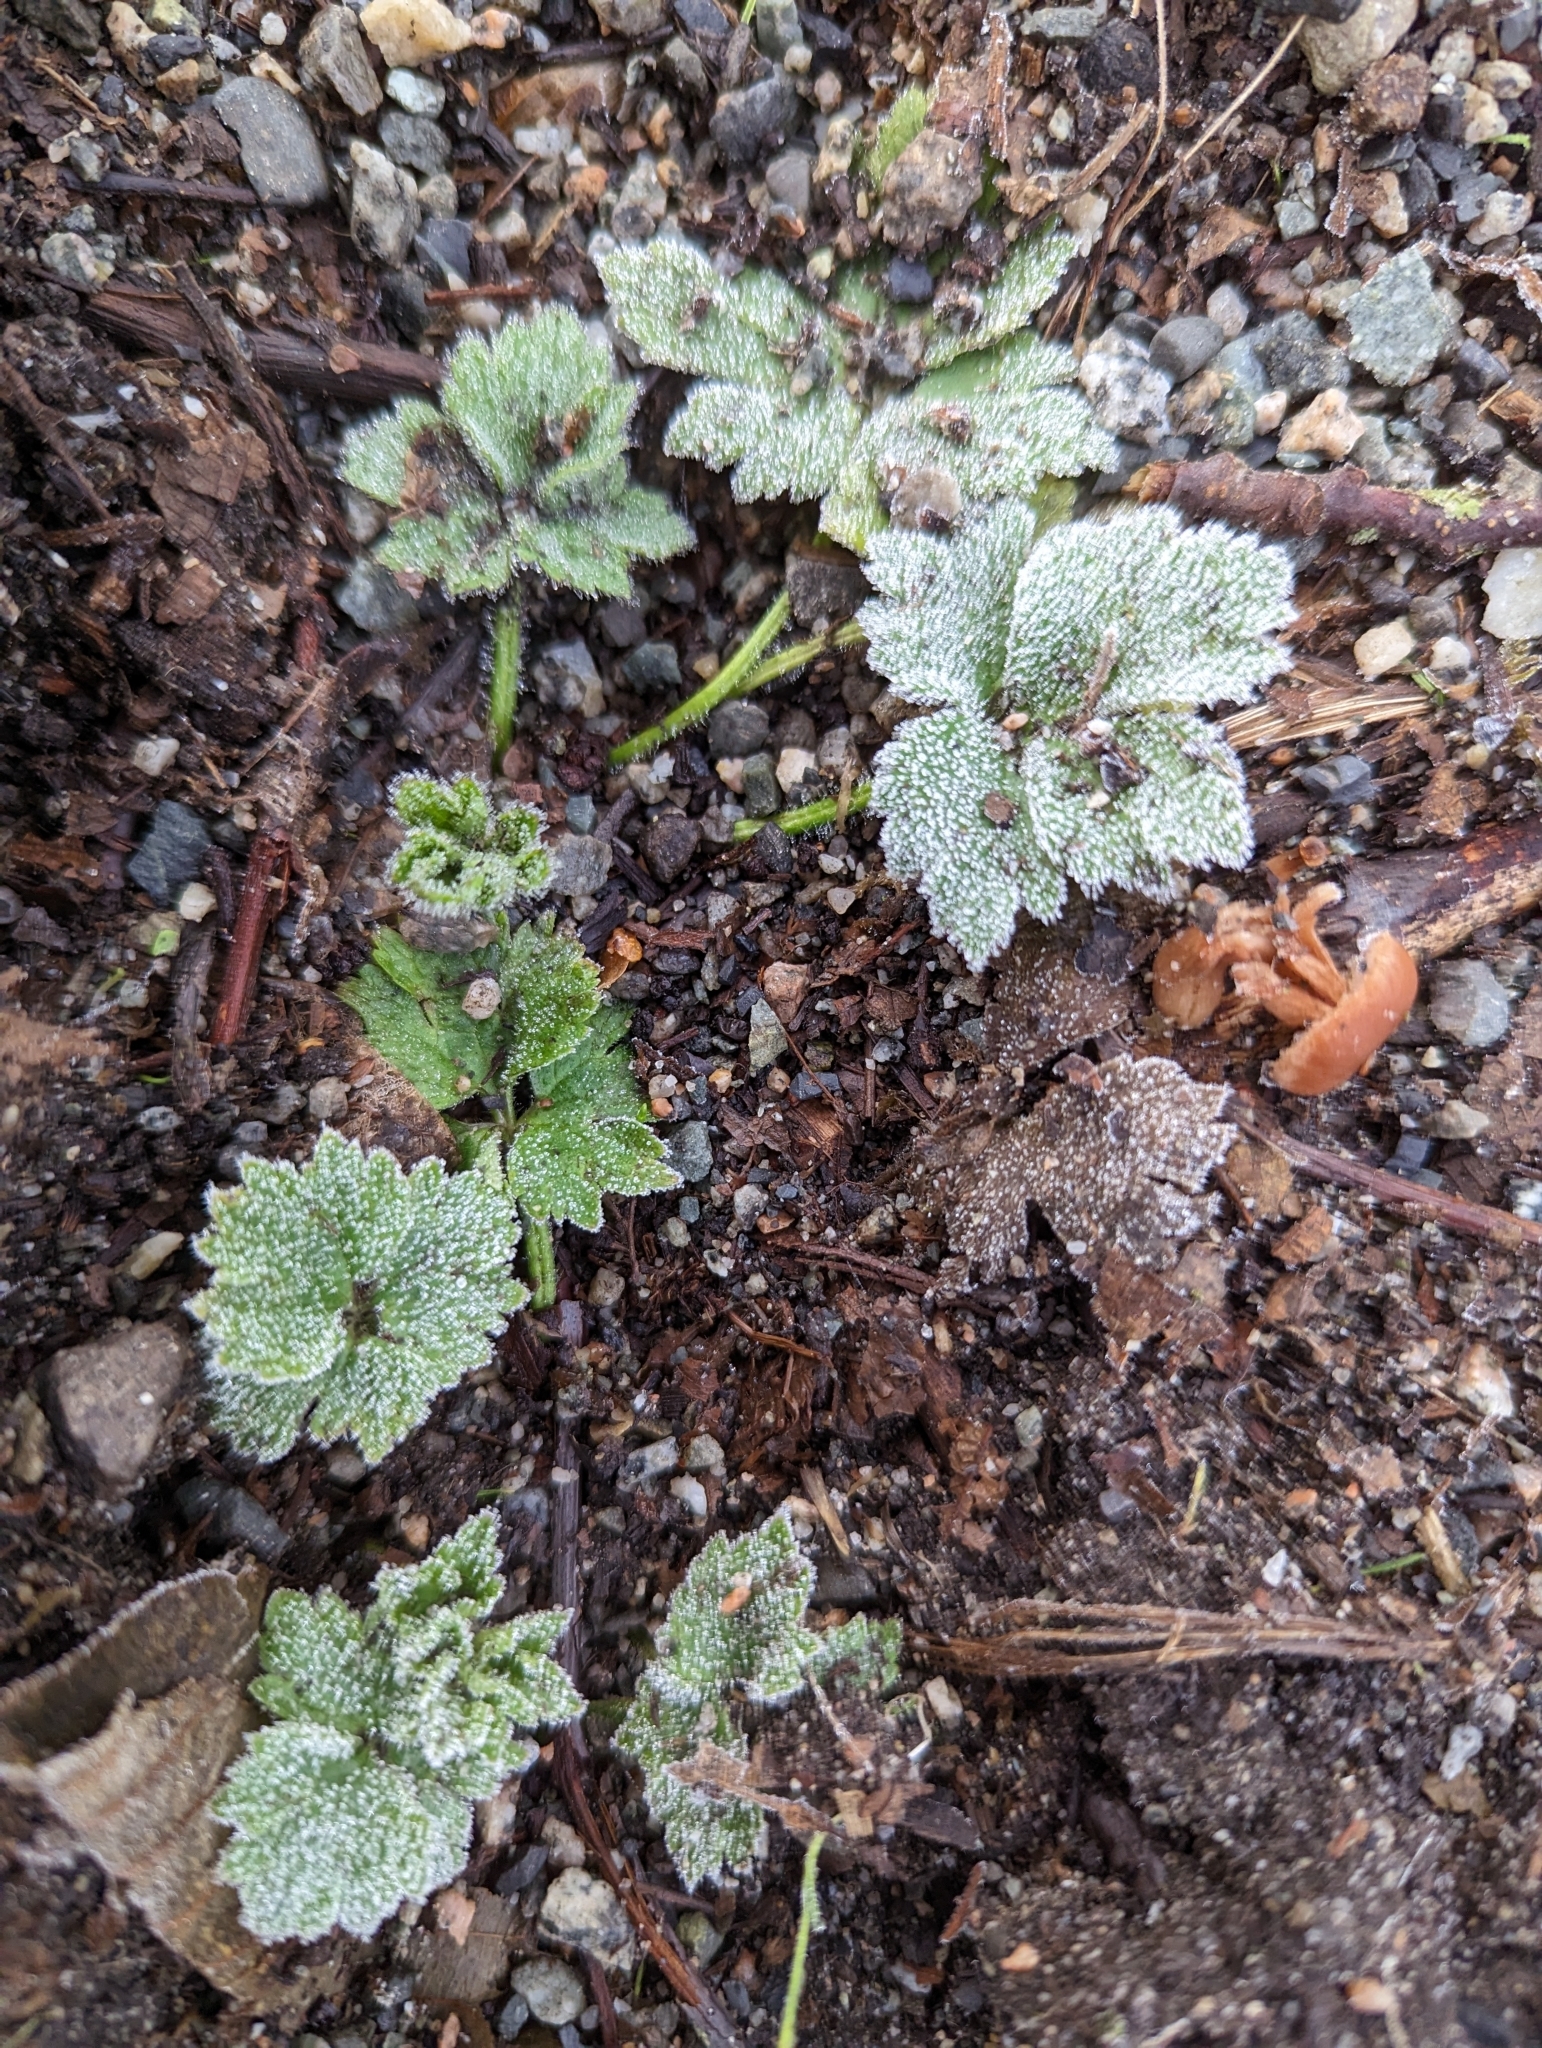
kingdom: Plantae
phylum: Tracheophyta
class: Magnoliopsida
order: Ranunculales
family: Ranunculaceae
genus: Ranunculus
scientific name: Ranunculus repens
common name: Creeping buttercup
